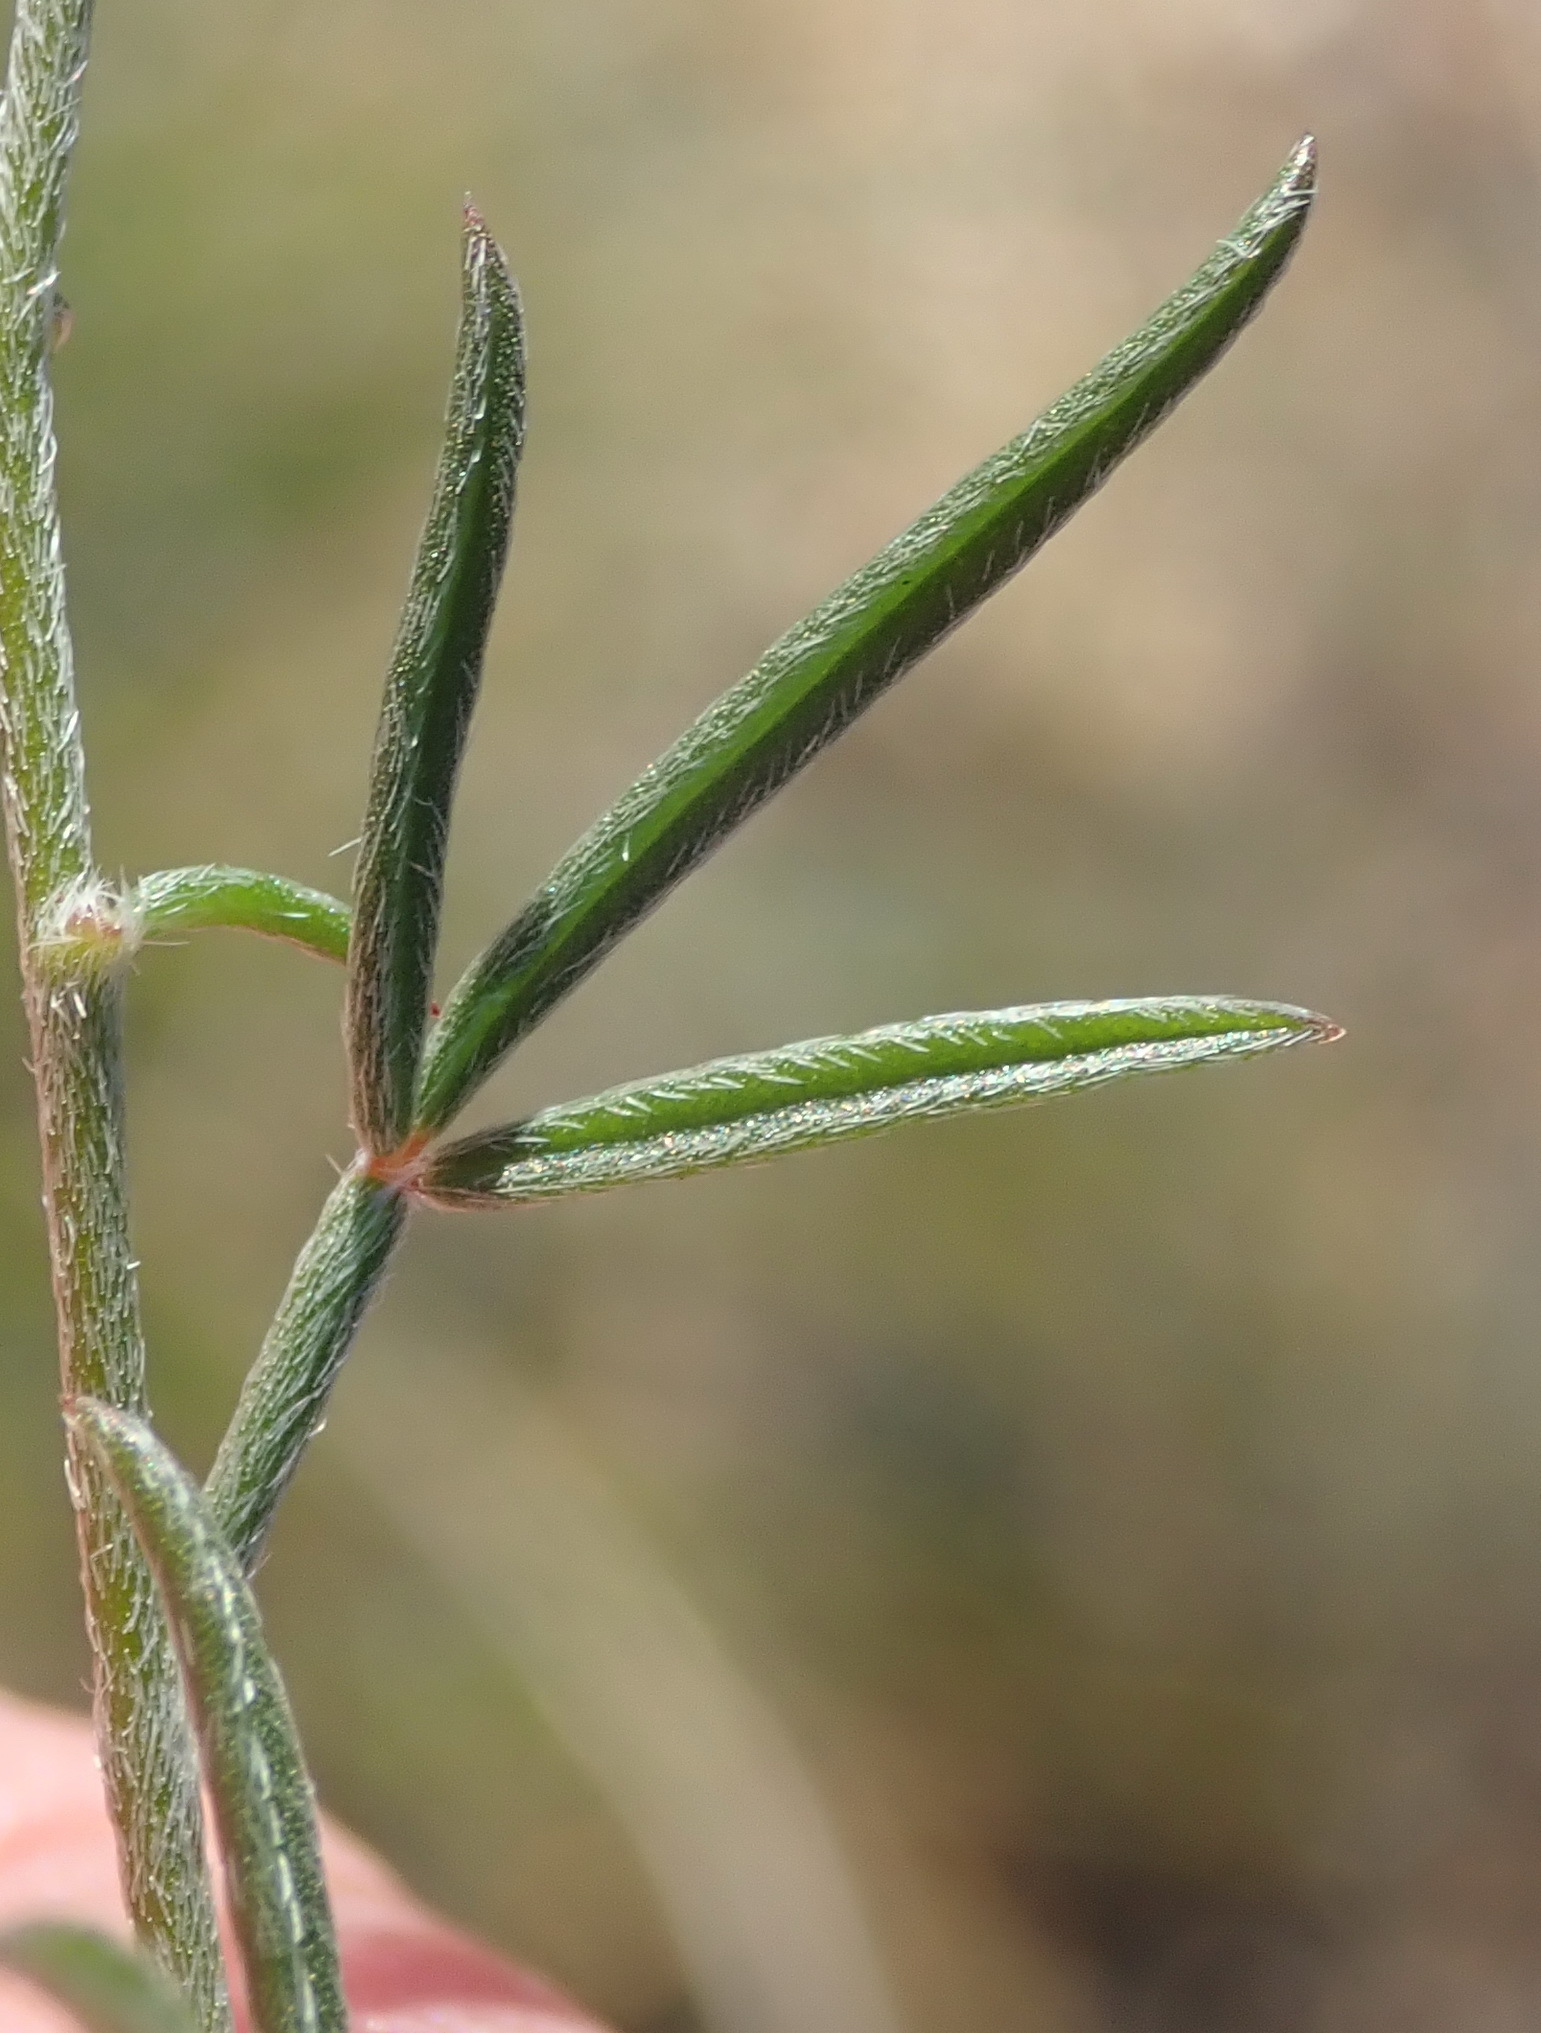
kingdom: Plantae
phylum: Tracheophyta
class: Magnoliopsida
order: Fabales
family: Fabaceae
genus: Lotononis
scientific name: Lotononis filiformis
